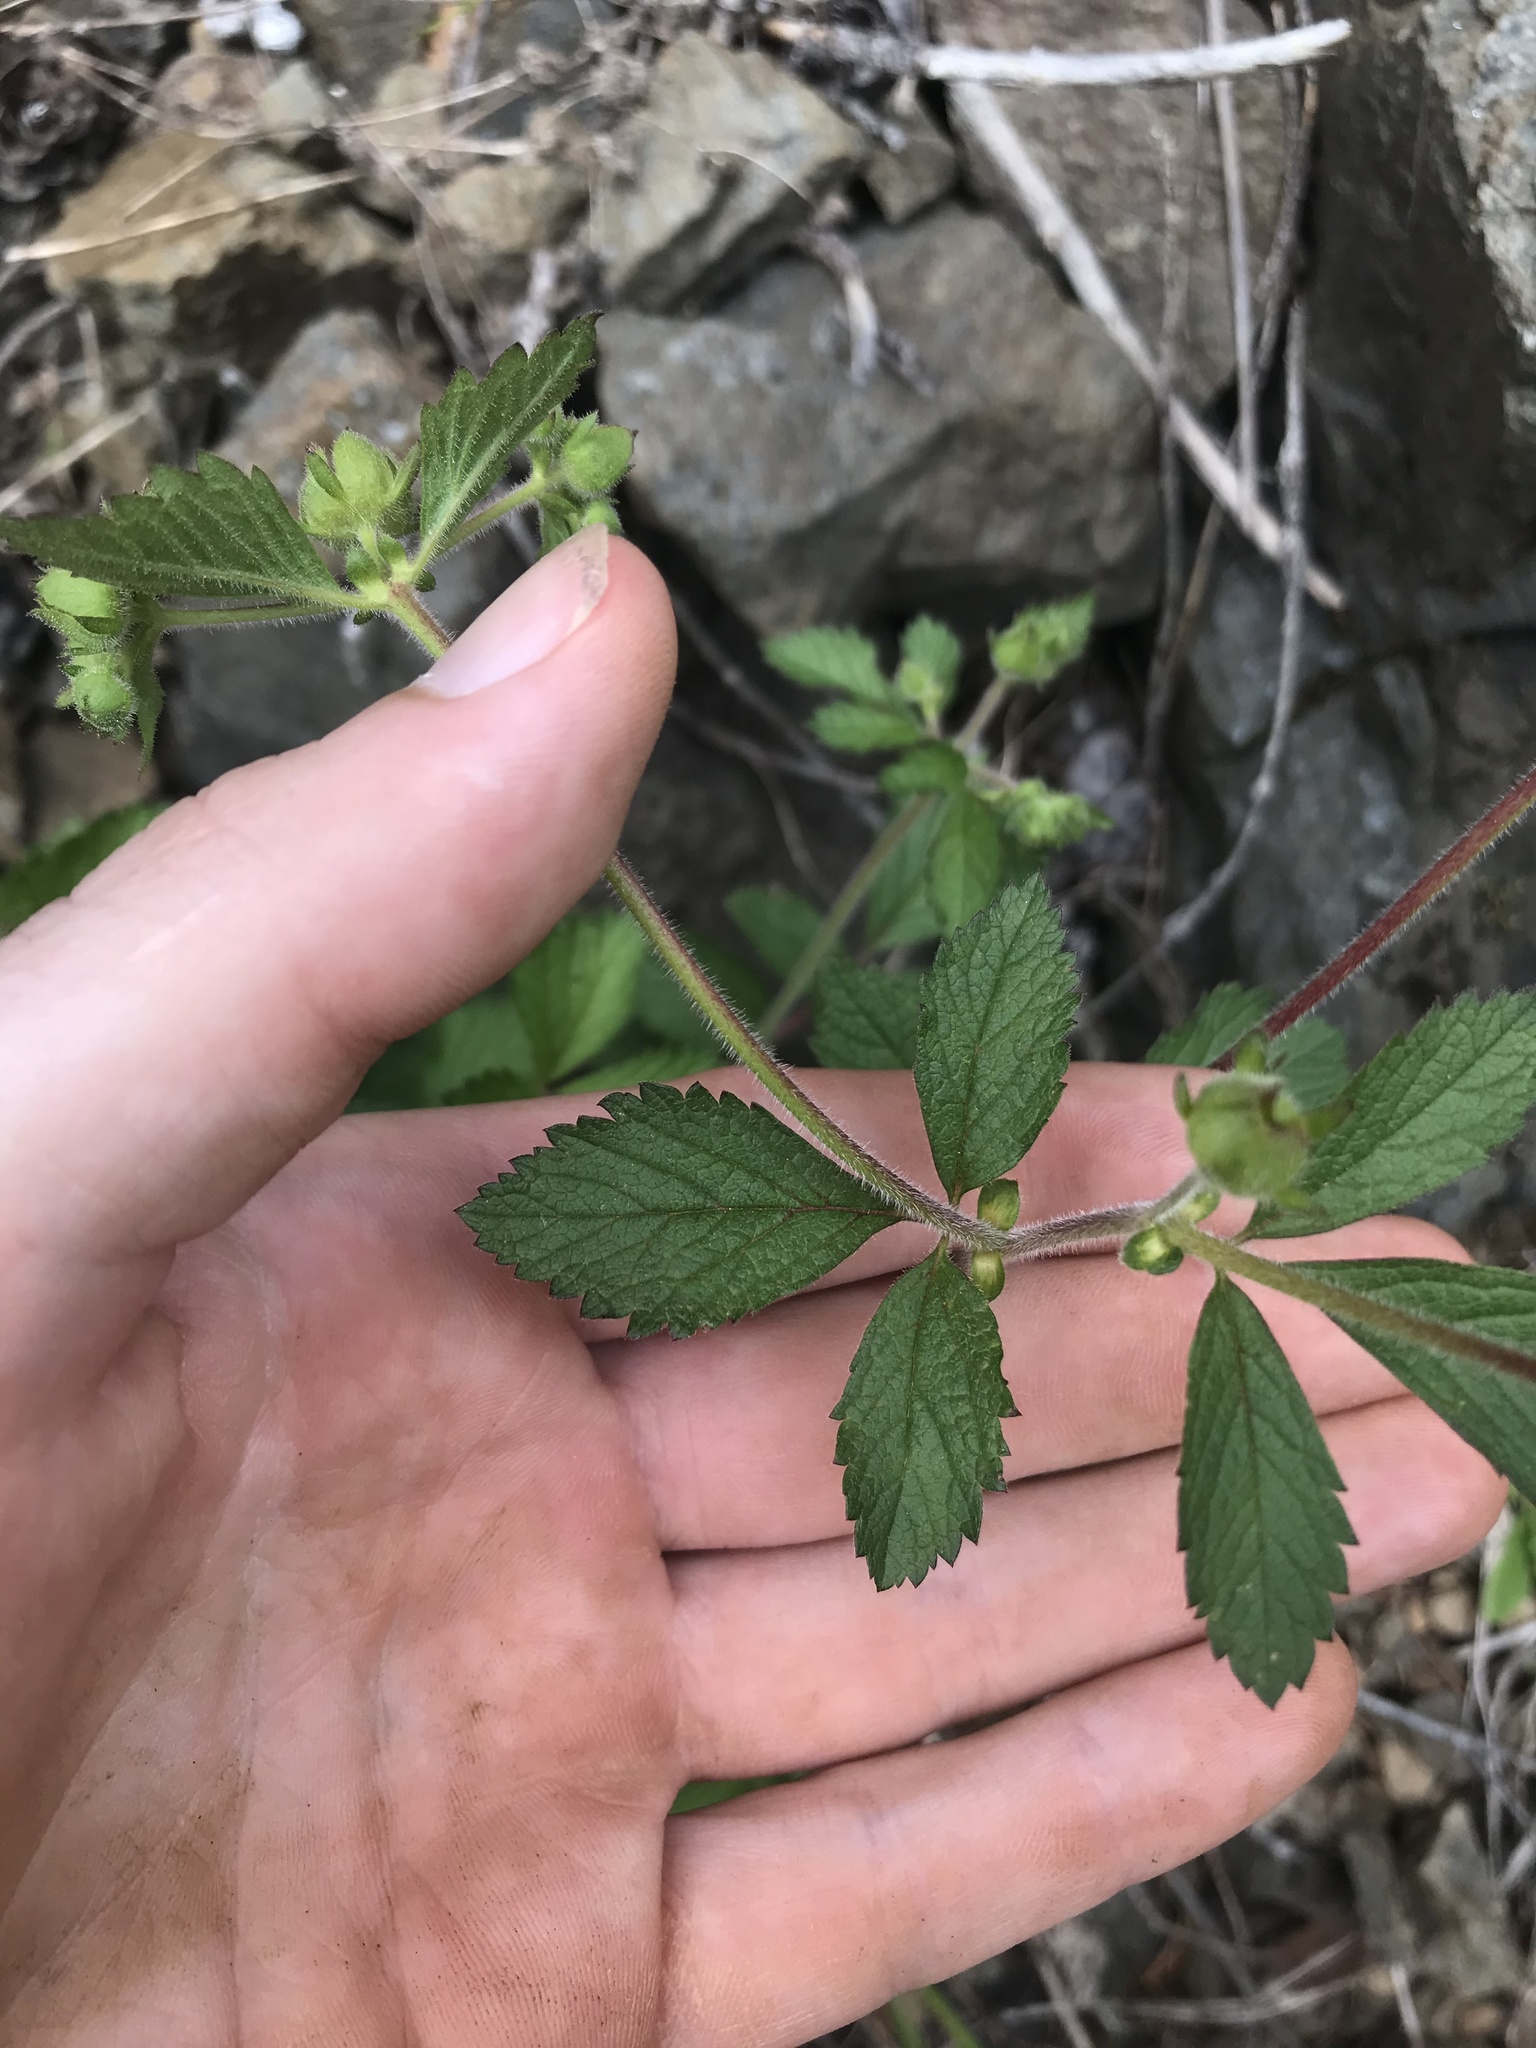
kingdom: Plantae
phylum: Tracheophyta
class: Magnoliopsida
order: Rosales
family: Rosaceae
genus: Drymocallis
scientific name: Drymocallis glandulosa
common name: Sticky cinquefoil
